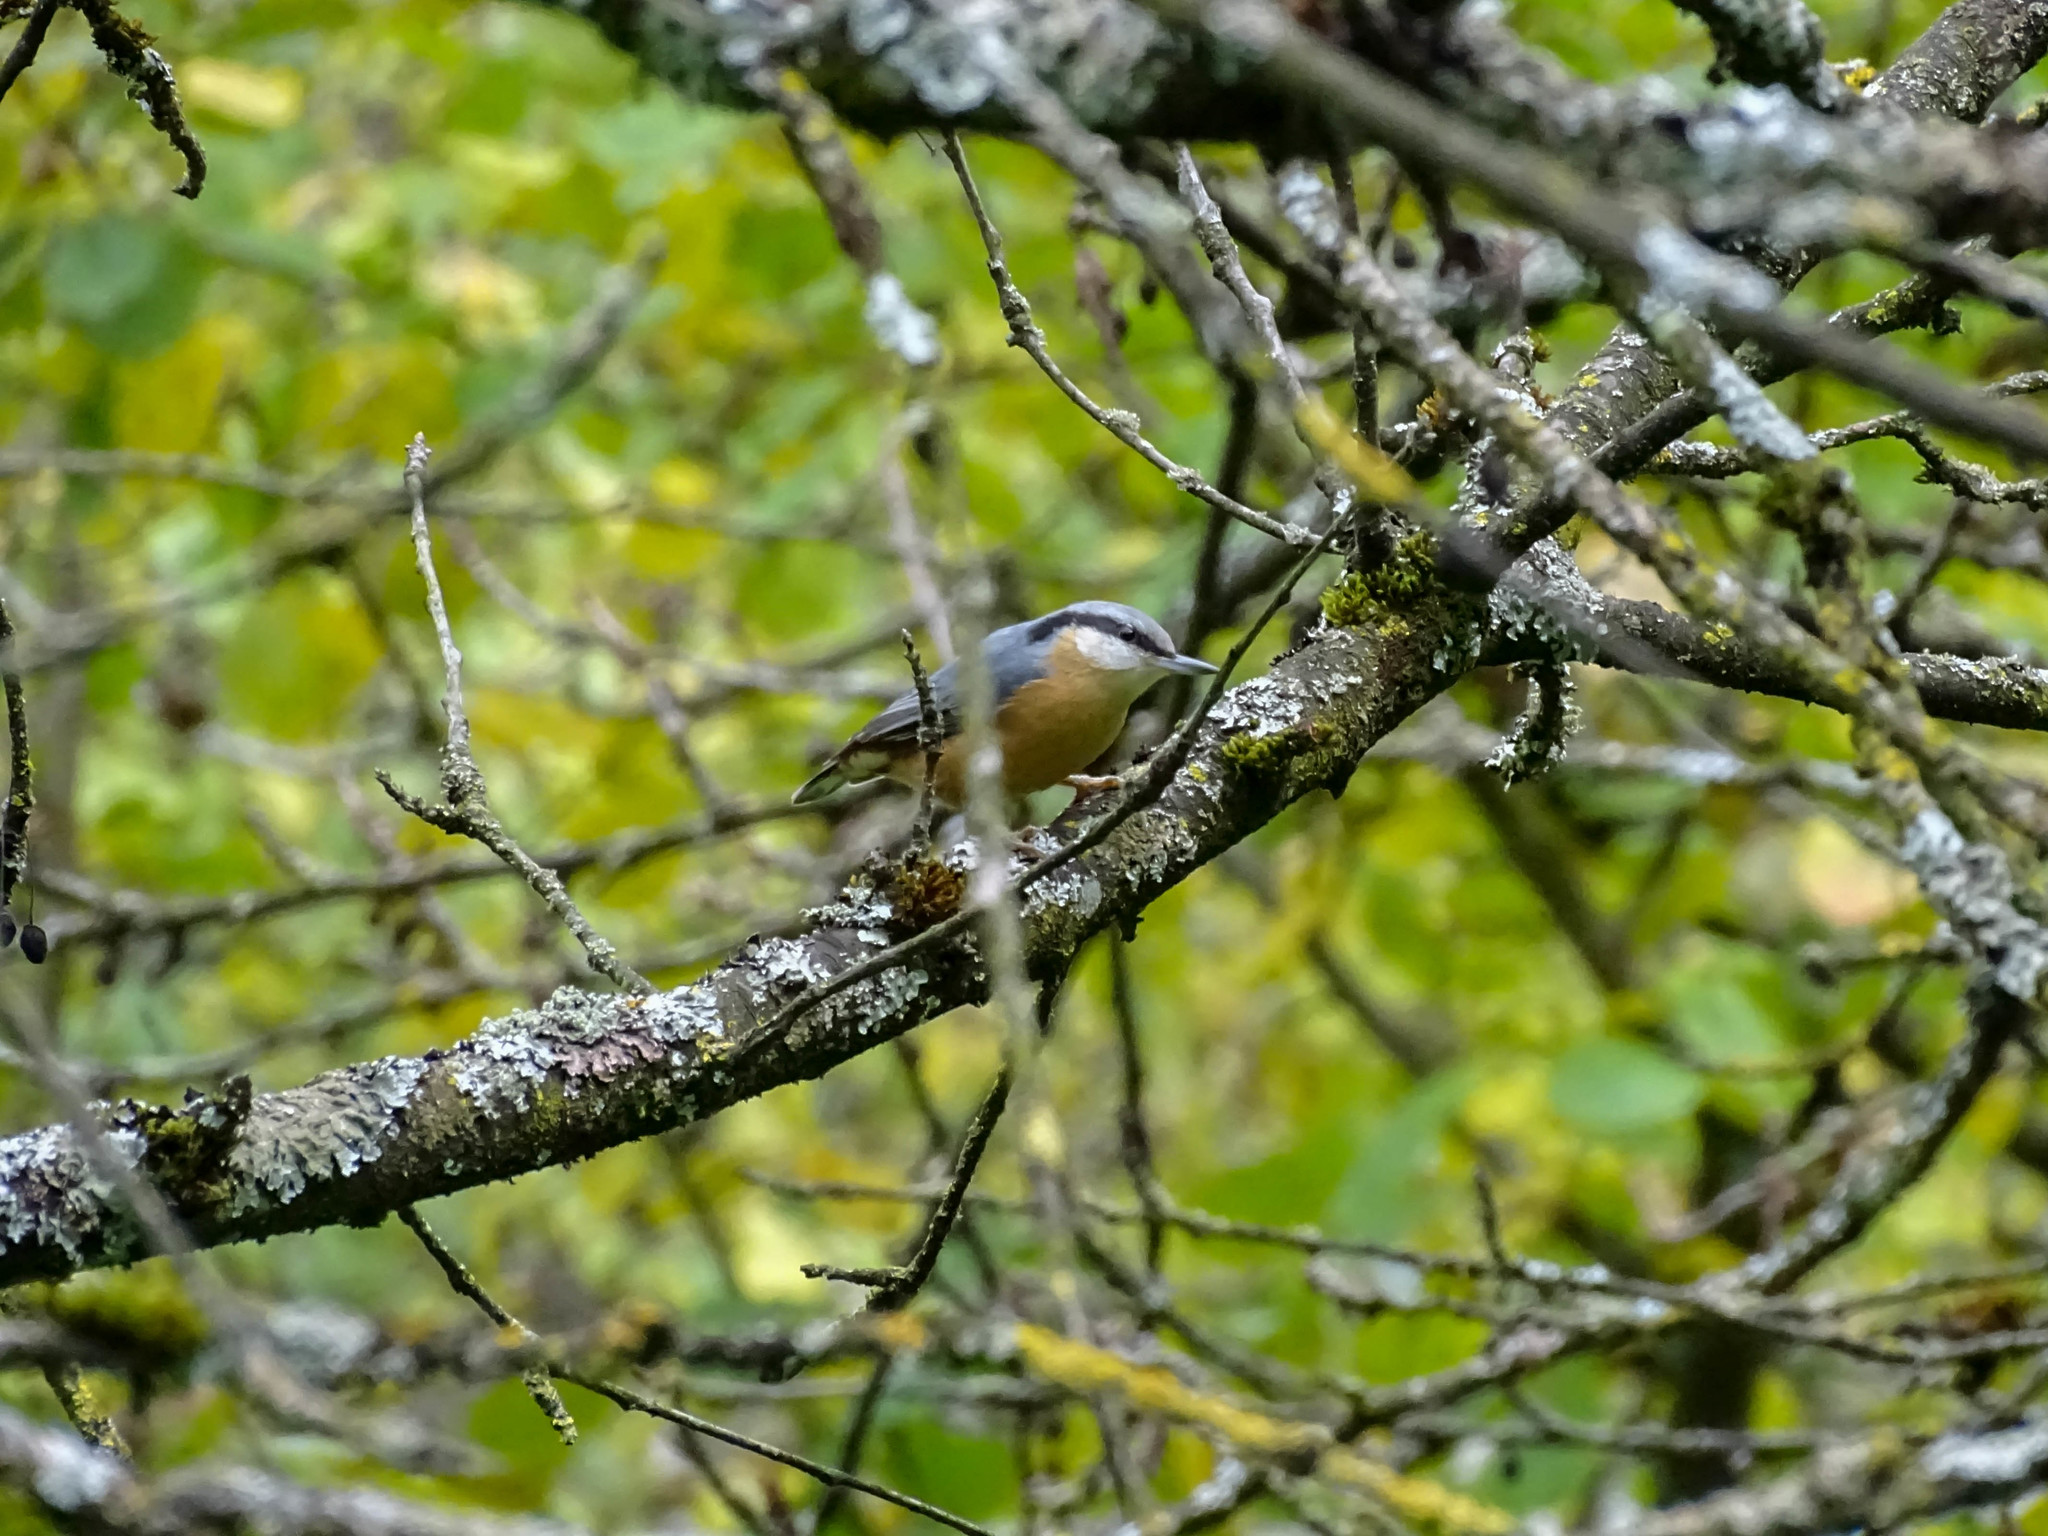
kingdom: Animalia
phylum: Chordata
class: Aves
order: Passeriformes
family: Sittidae
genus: Sitta
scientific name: Sitta europaea
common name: Eurasian nuthatch
